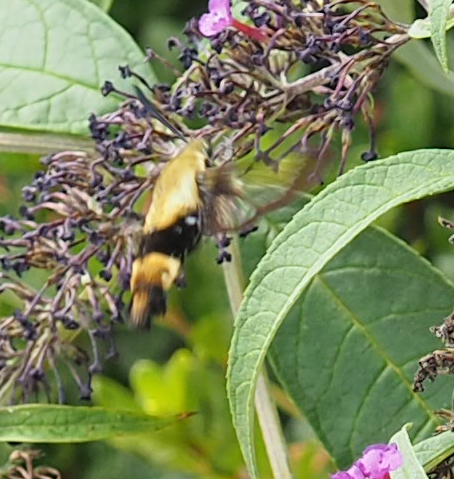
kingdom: Animalia
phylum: Arthropoda
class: Insecta
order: Lepidoptera
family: Sphingidae
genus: Hemaris
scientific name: Hemaris diffinis
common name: Bumblebee moth
